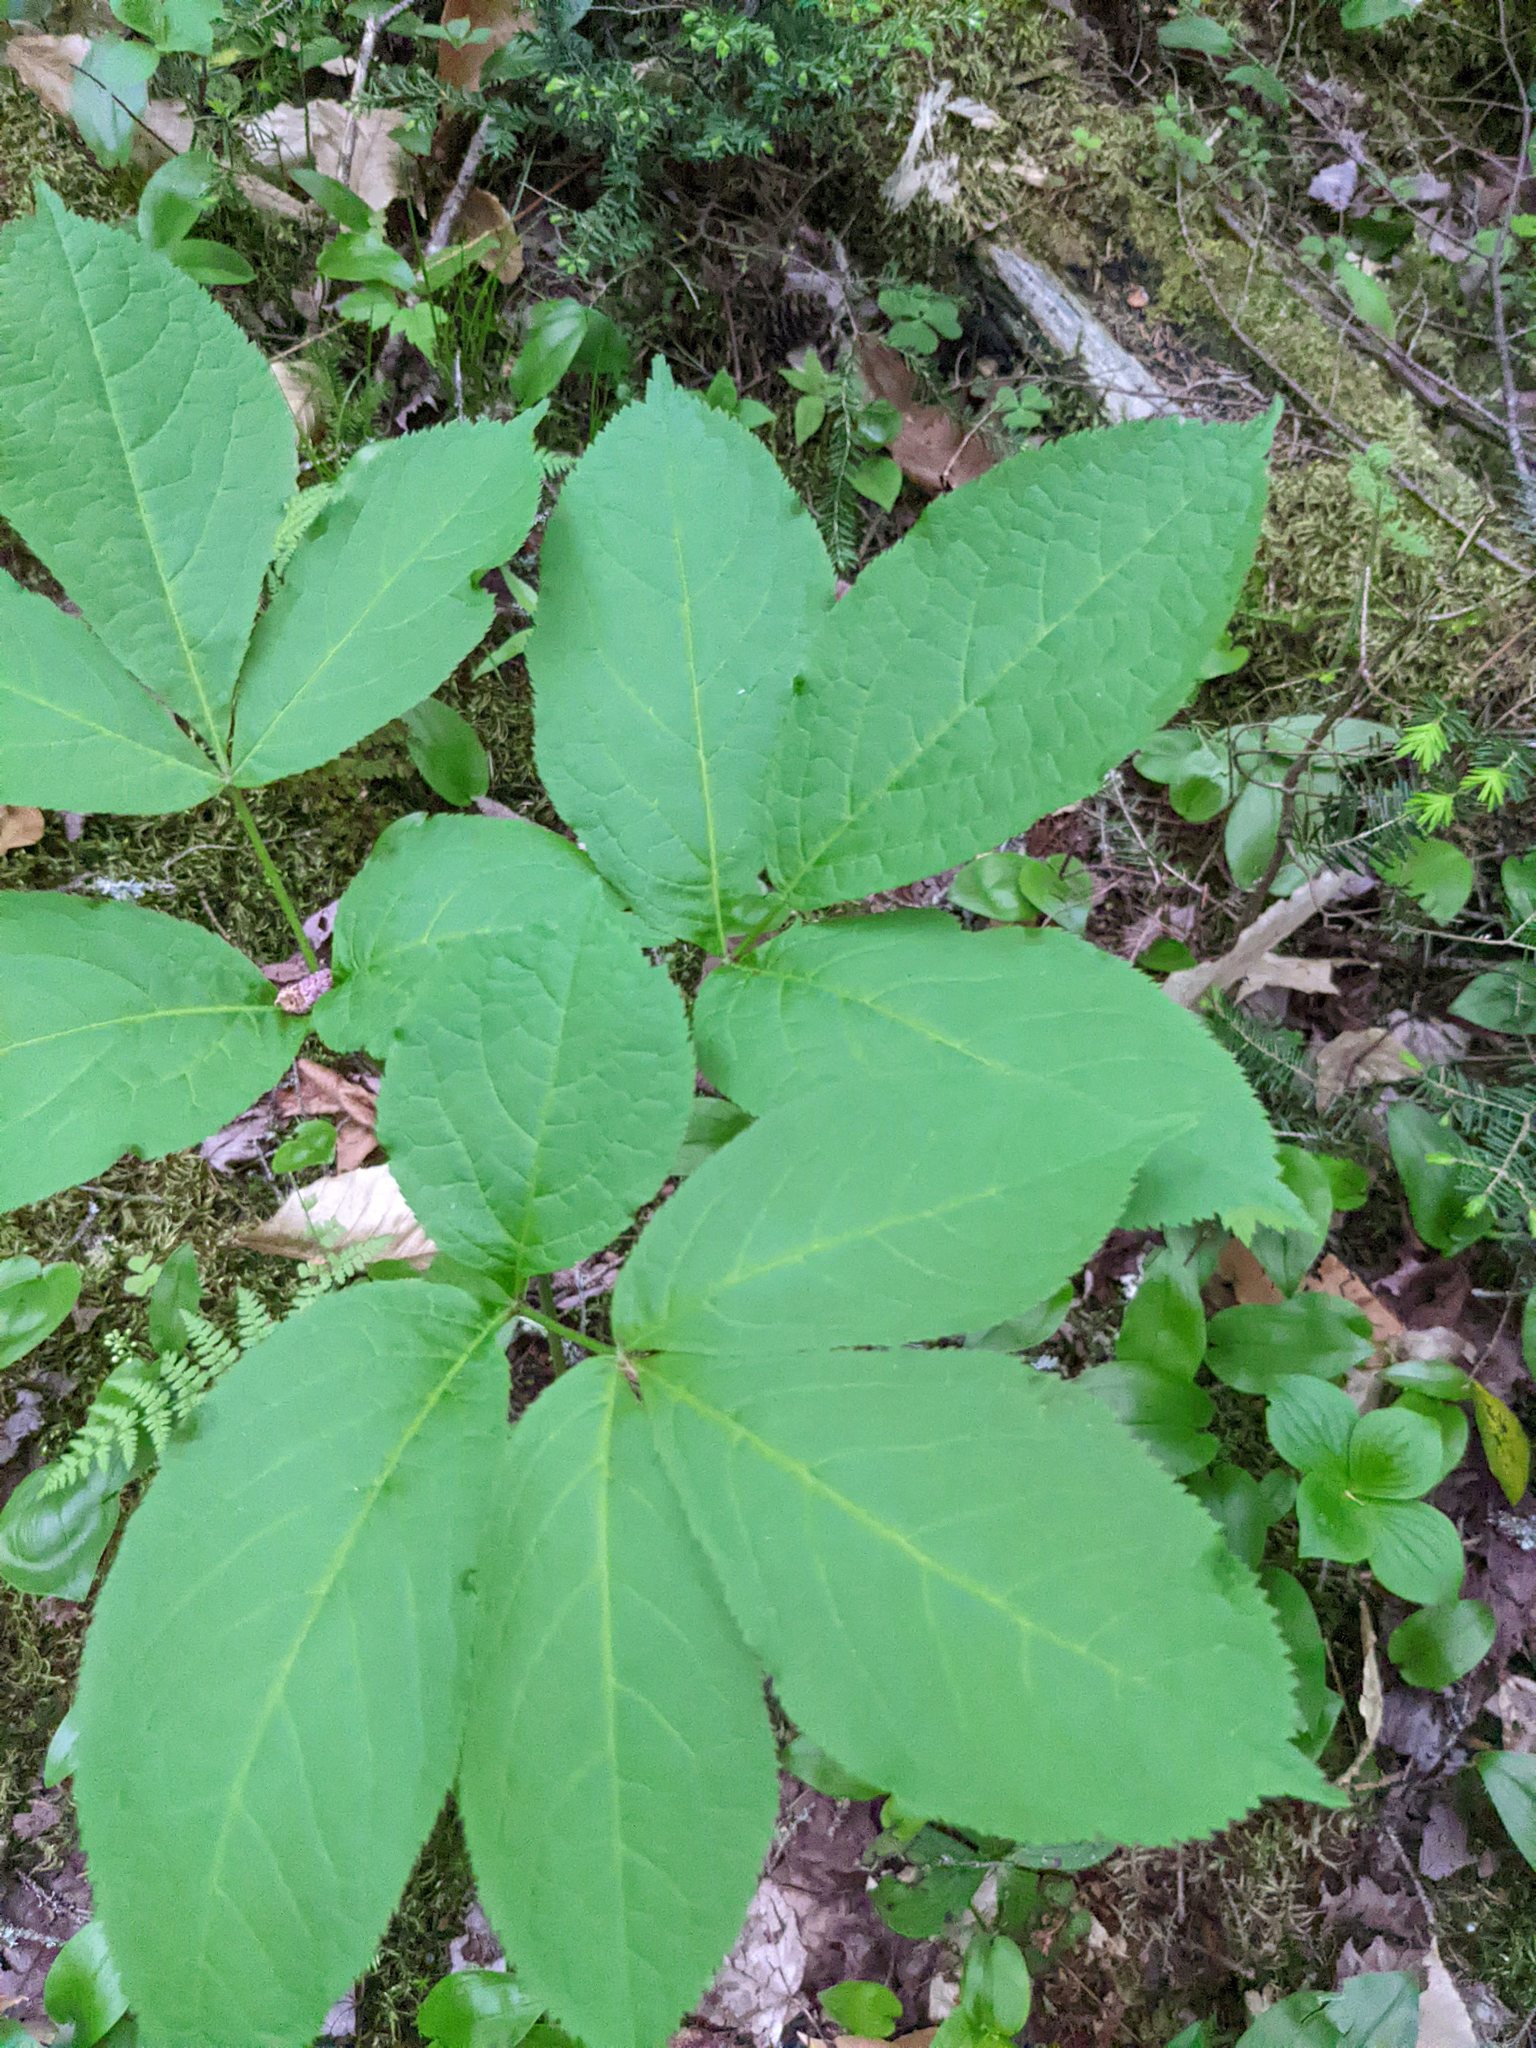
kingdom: Plantae
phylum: Tracheophyta
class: Magnoliopsida
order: Apiales
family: Araliaceae
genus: Aralia
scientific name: Aralia nudicaulis
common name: Wild sarsaparilla
